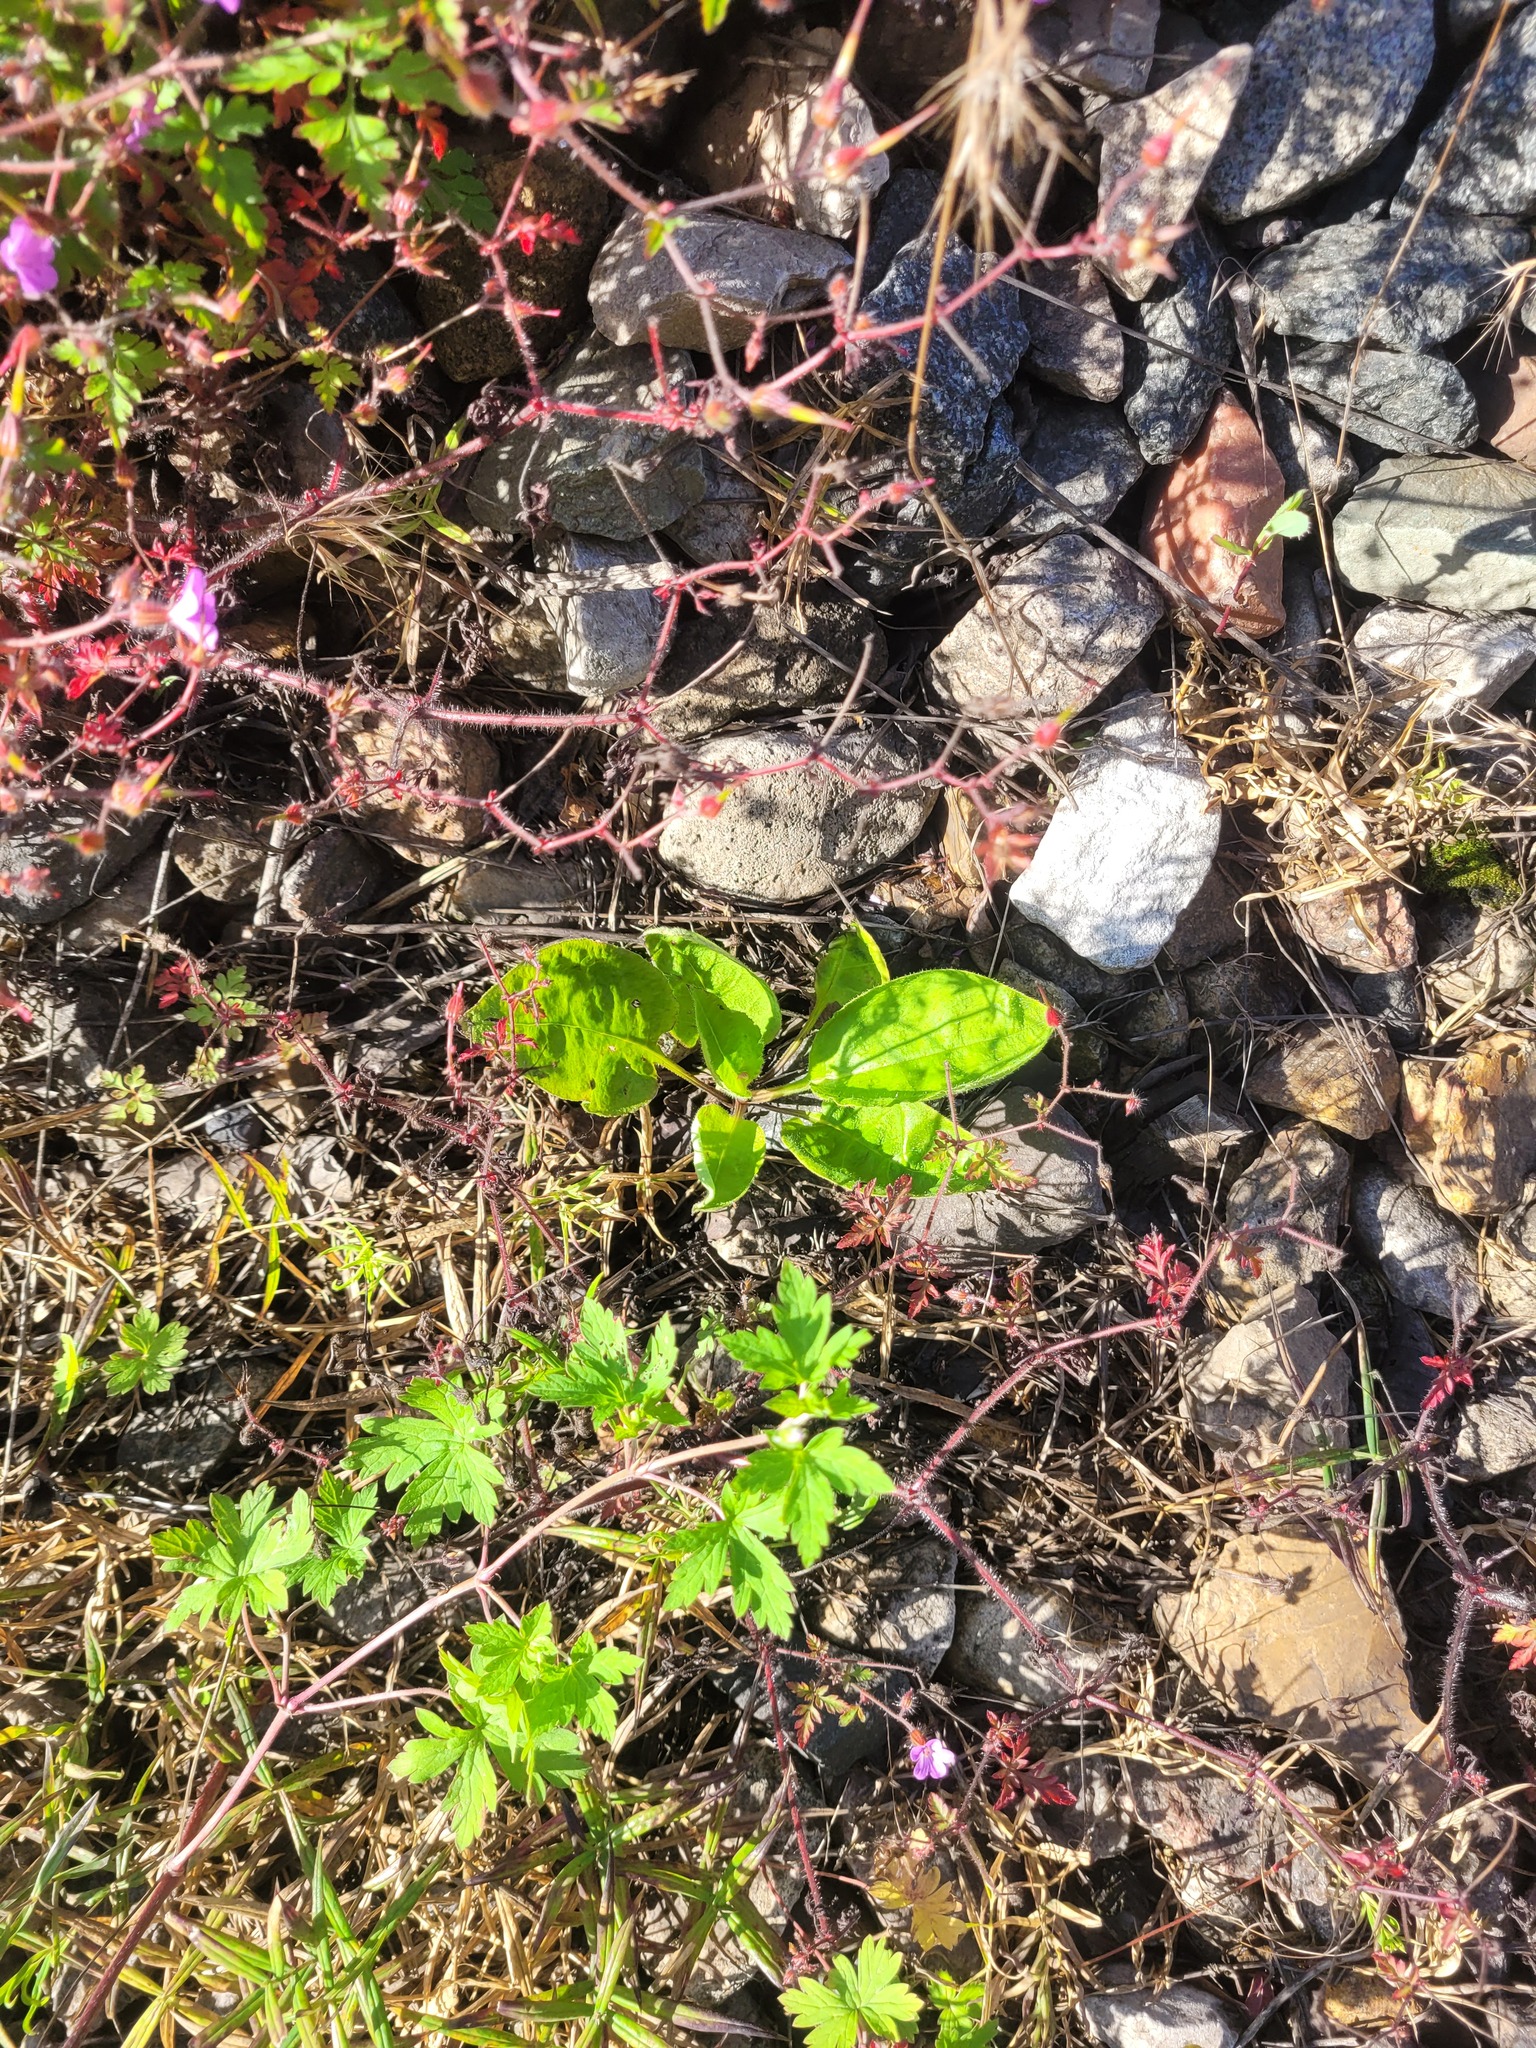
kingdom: Plantae
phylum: Tracheophyta
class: Magnoliopsida
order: Boraginales
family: Boraginaceae
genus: Pulmonaria
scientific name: Pulmonaria obscura
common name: Suffolk lungwort
